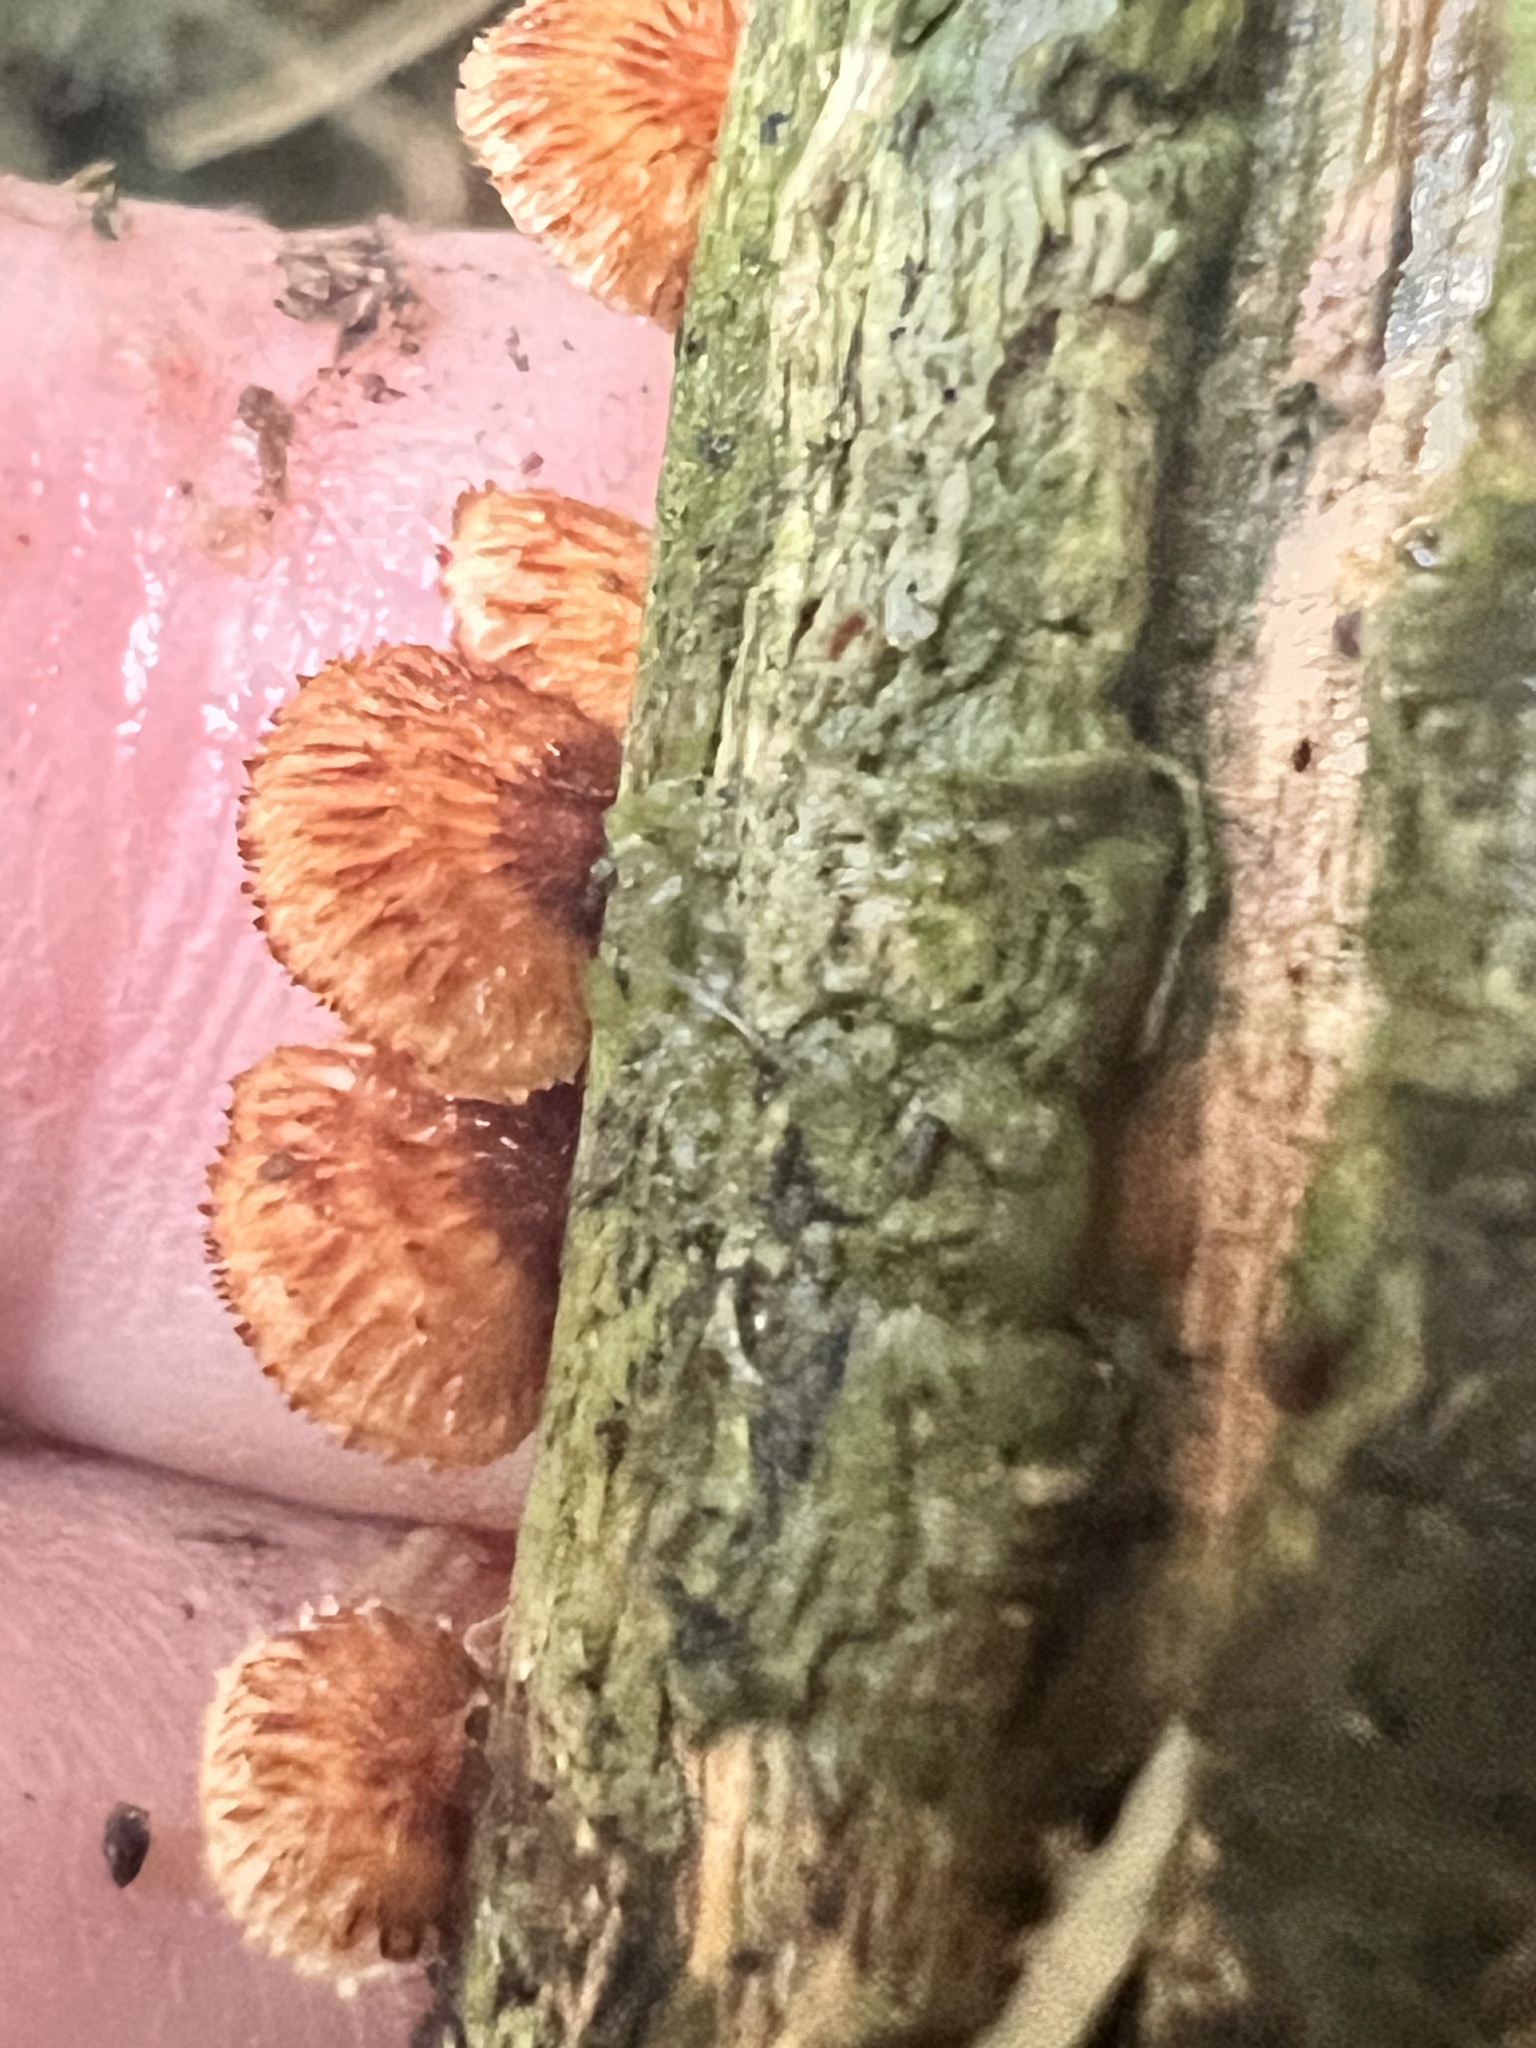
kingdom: Fungi
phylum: Basidiomycota
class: Agaricomycetes
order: Agaricales
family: Marasmiaceae
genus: Chaetocalathus
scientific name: Chaetocalathus cocciformis
